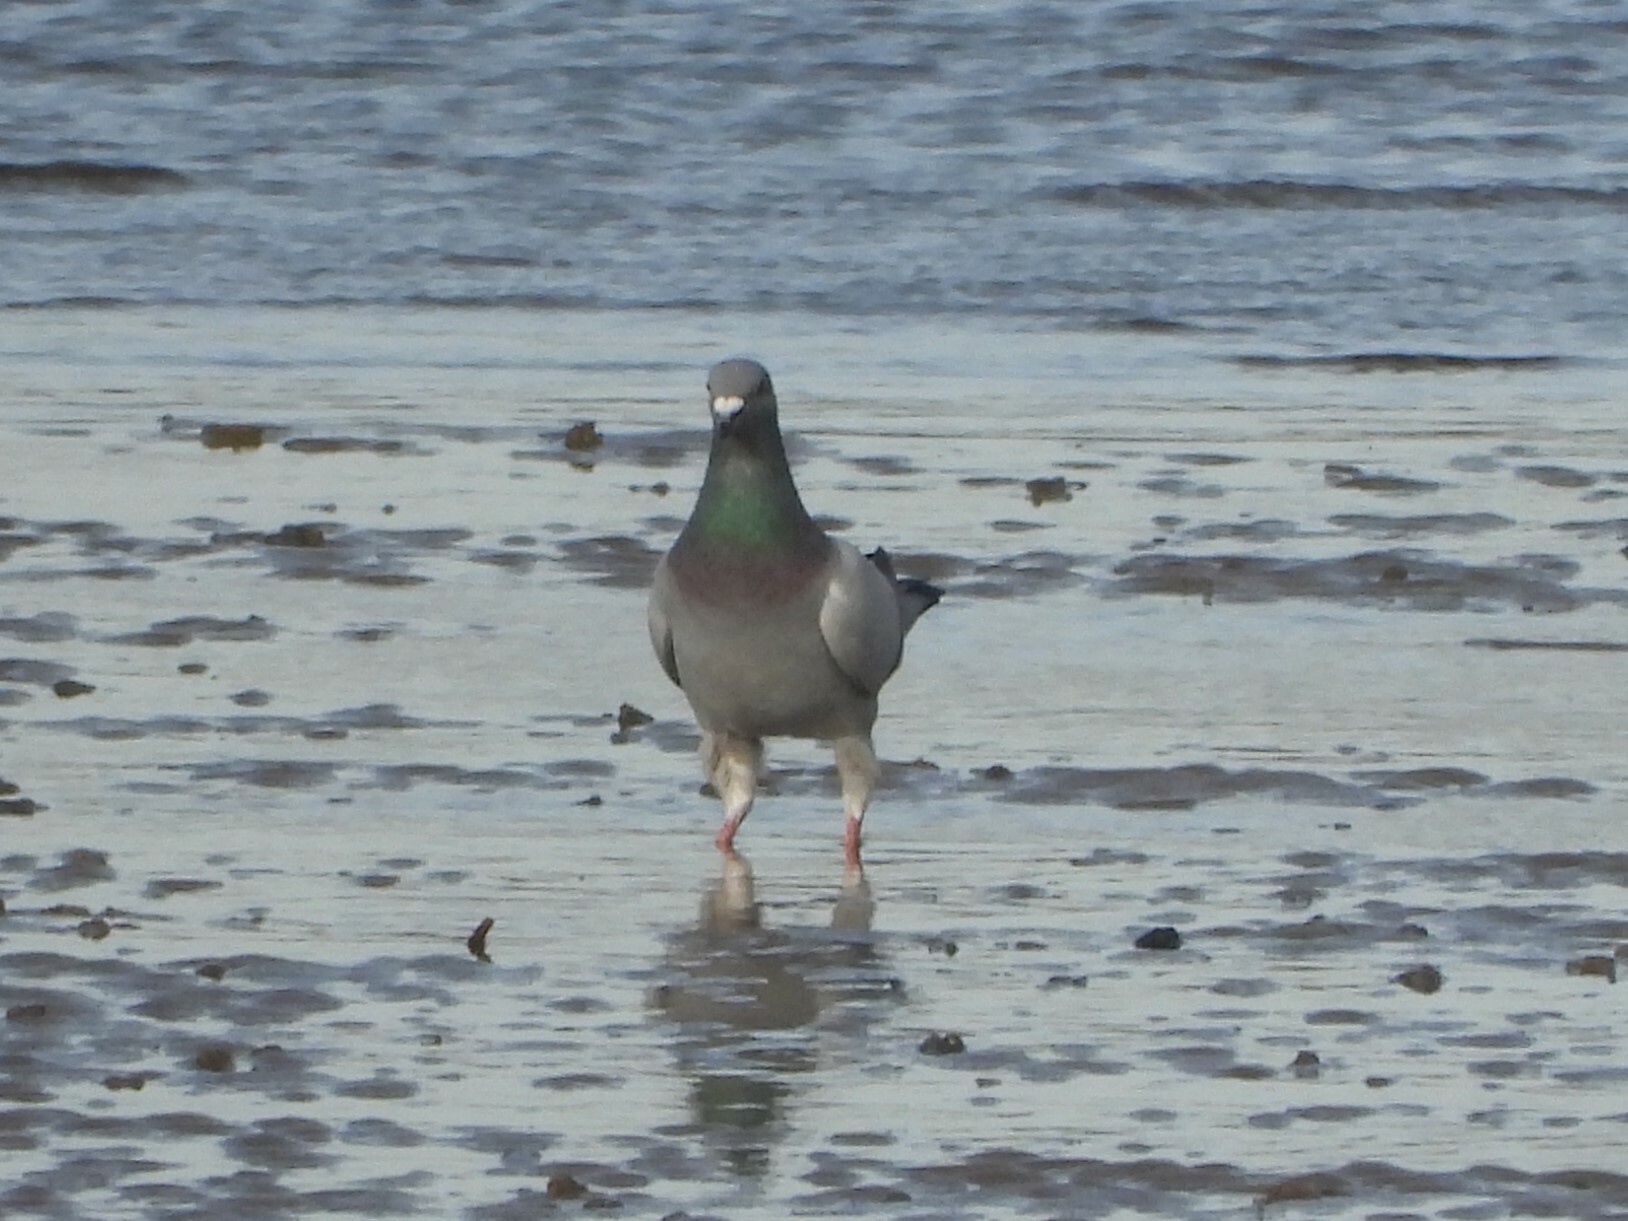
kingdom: Animalia
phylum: Chordata
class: Aves
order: Columbiformes
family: Columbidae
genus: Columba
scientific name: Columba livia
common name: Rock pigeon
